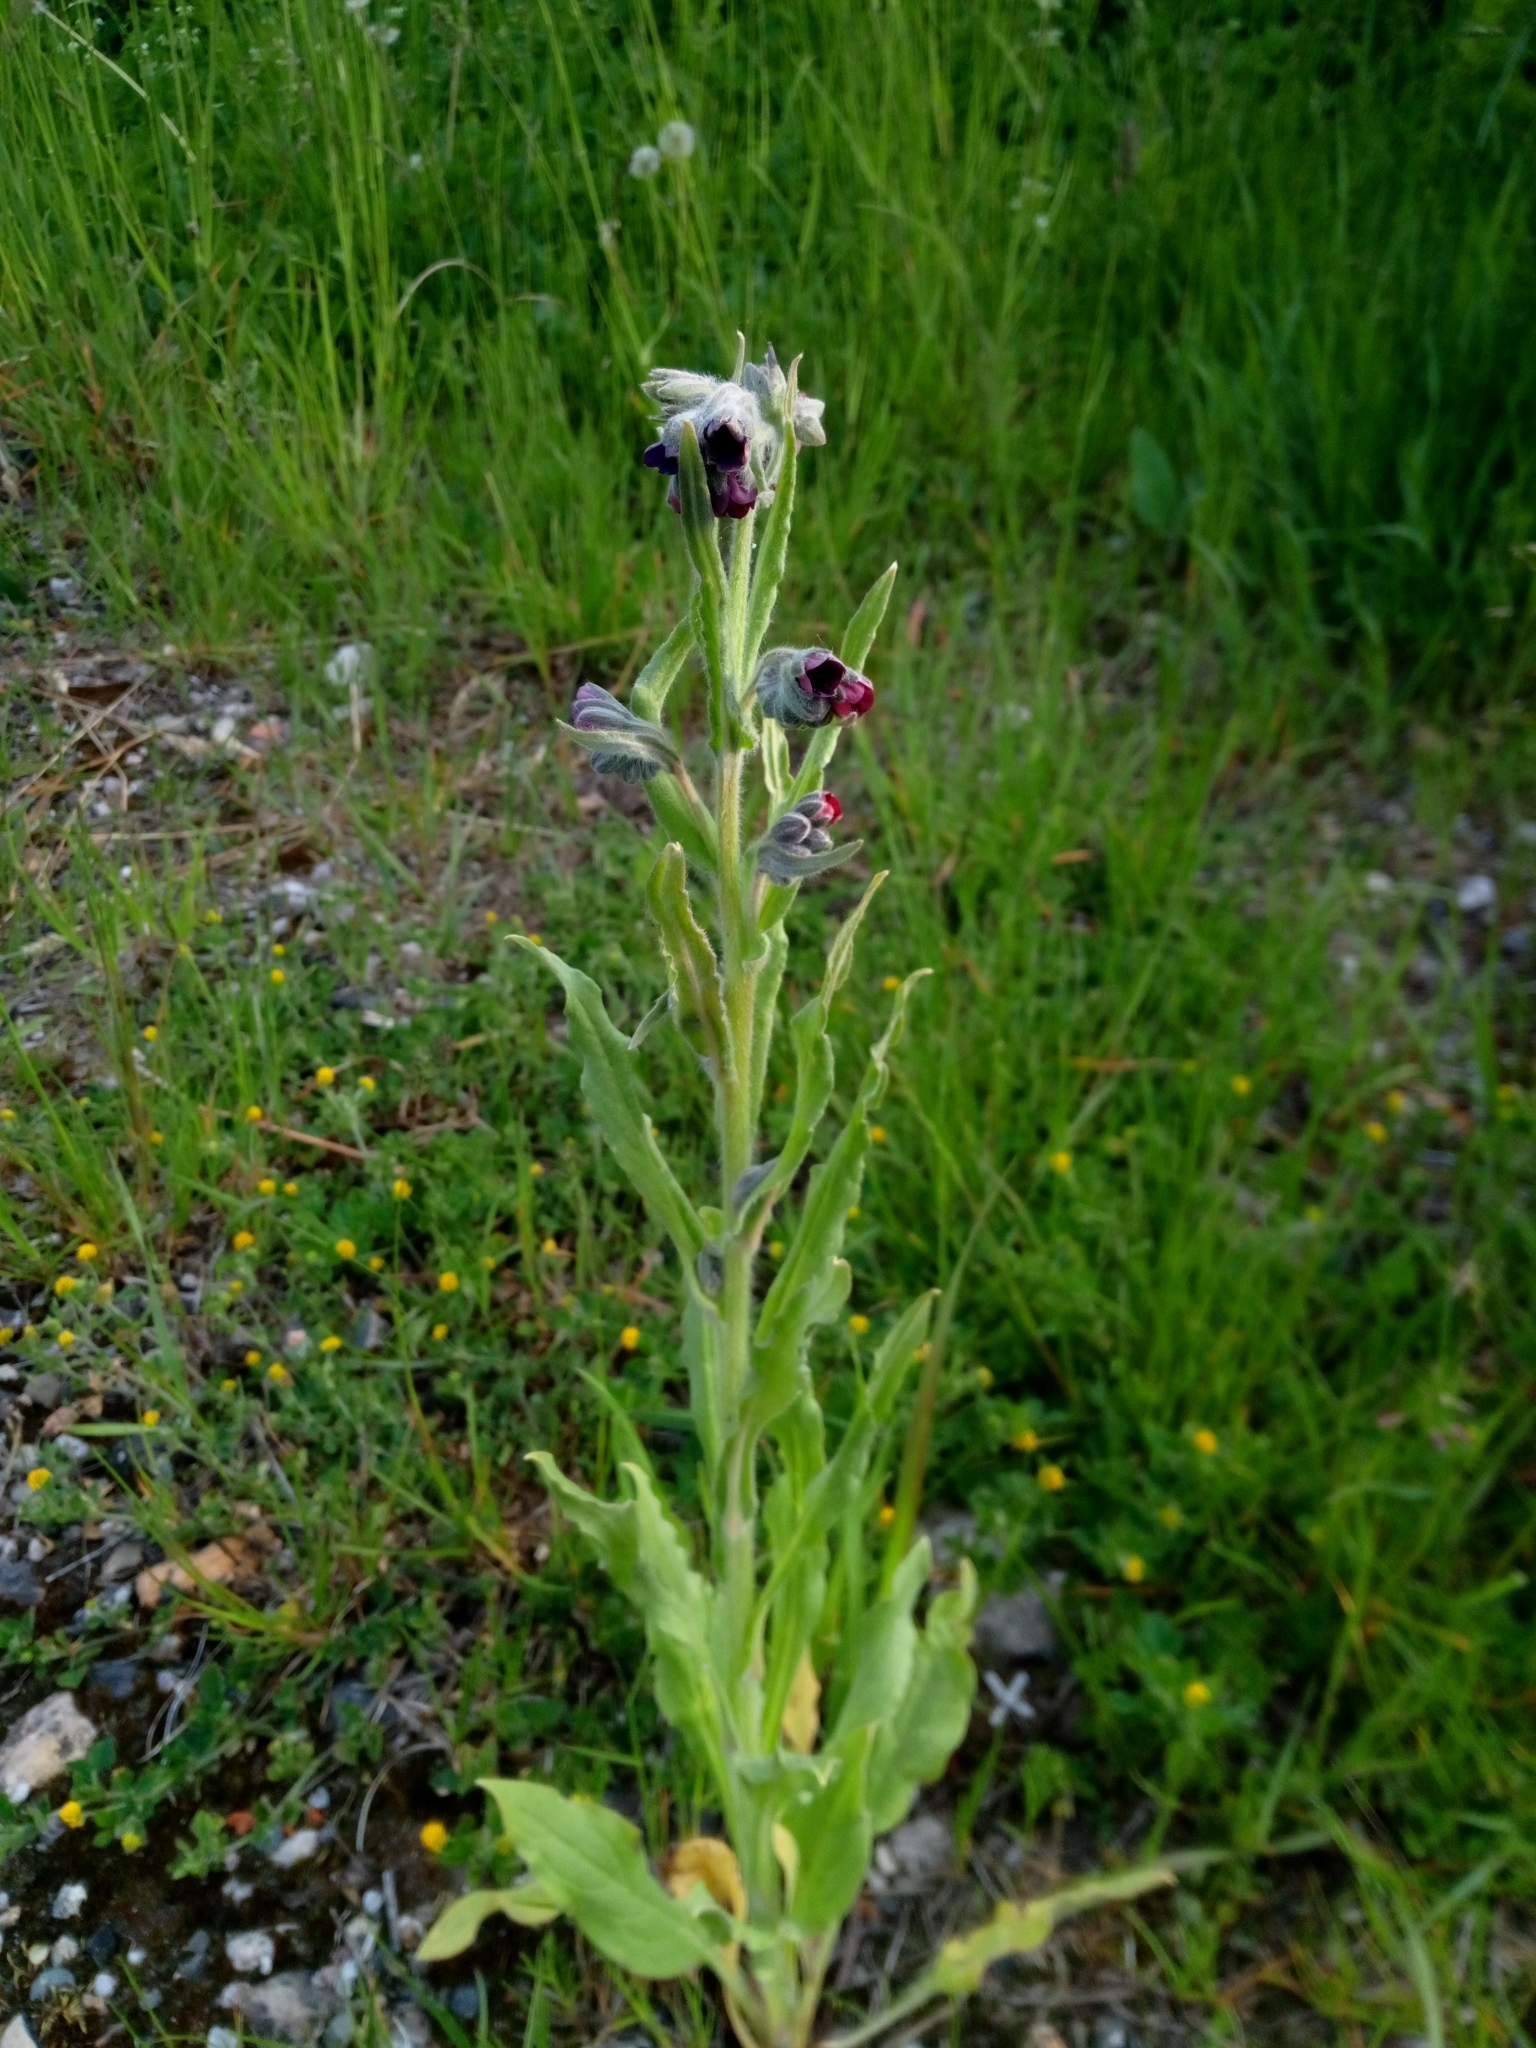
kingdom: Plantae
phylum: Tracheophyta
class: Magnoliopsida
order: Boraginales
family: Boraginaceae
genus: Cynoglossum
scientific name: Cynoglossum officinale
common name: Hound's-tongue
